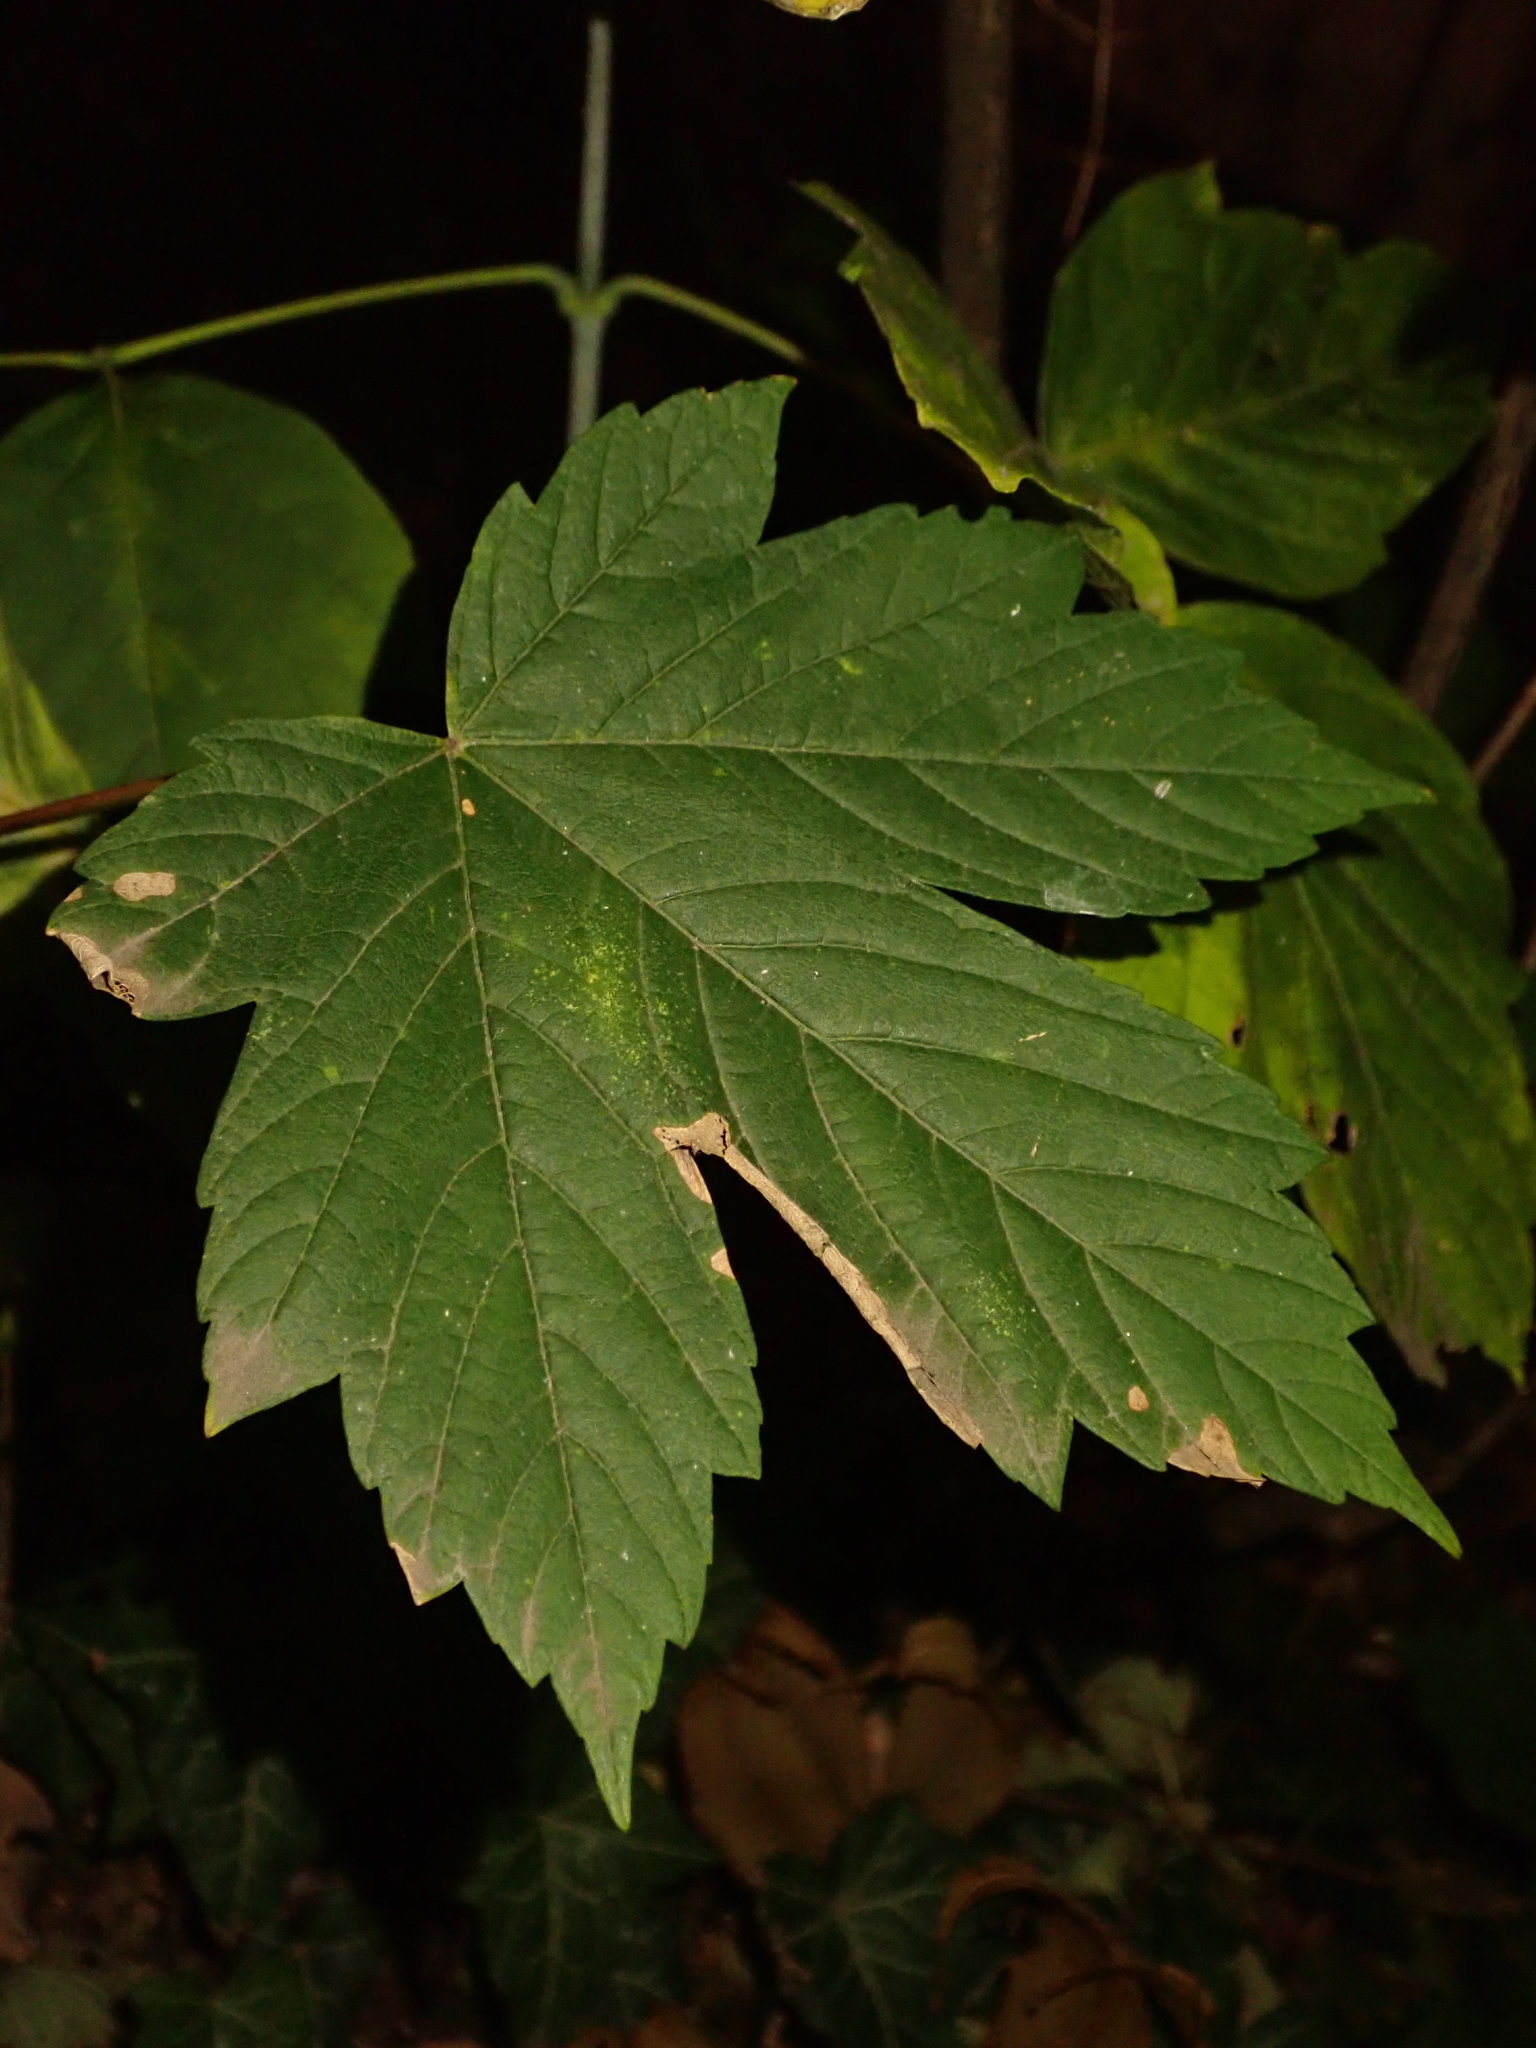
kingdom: Plantae
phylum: Tracheophyta
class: Magnoliopsida
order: Sapindales
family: Sapindaceae
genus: Acer
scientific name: Acer pseudoplatanus
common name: Sycamore
